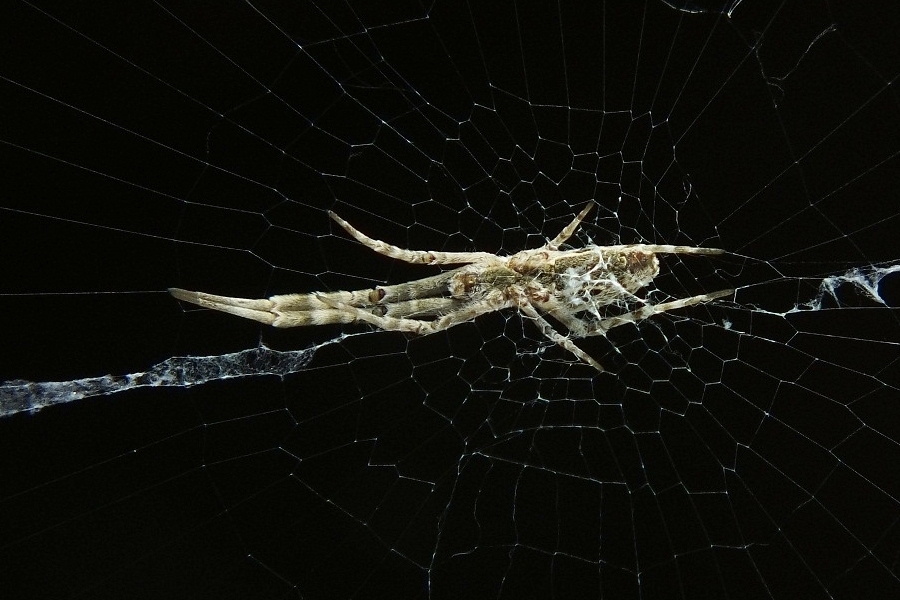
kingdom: Animalia
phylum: Arthropoda
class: Arachnida
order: Araneae
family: Uloboridae
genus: Uloborus
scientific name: Uloborus walckenaerius
